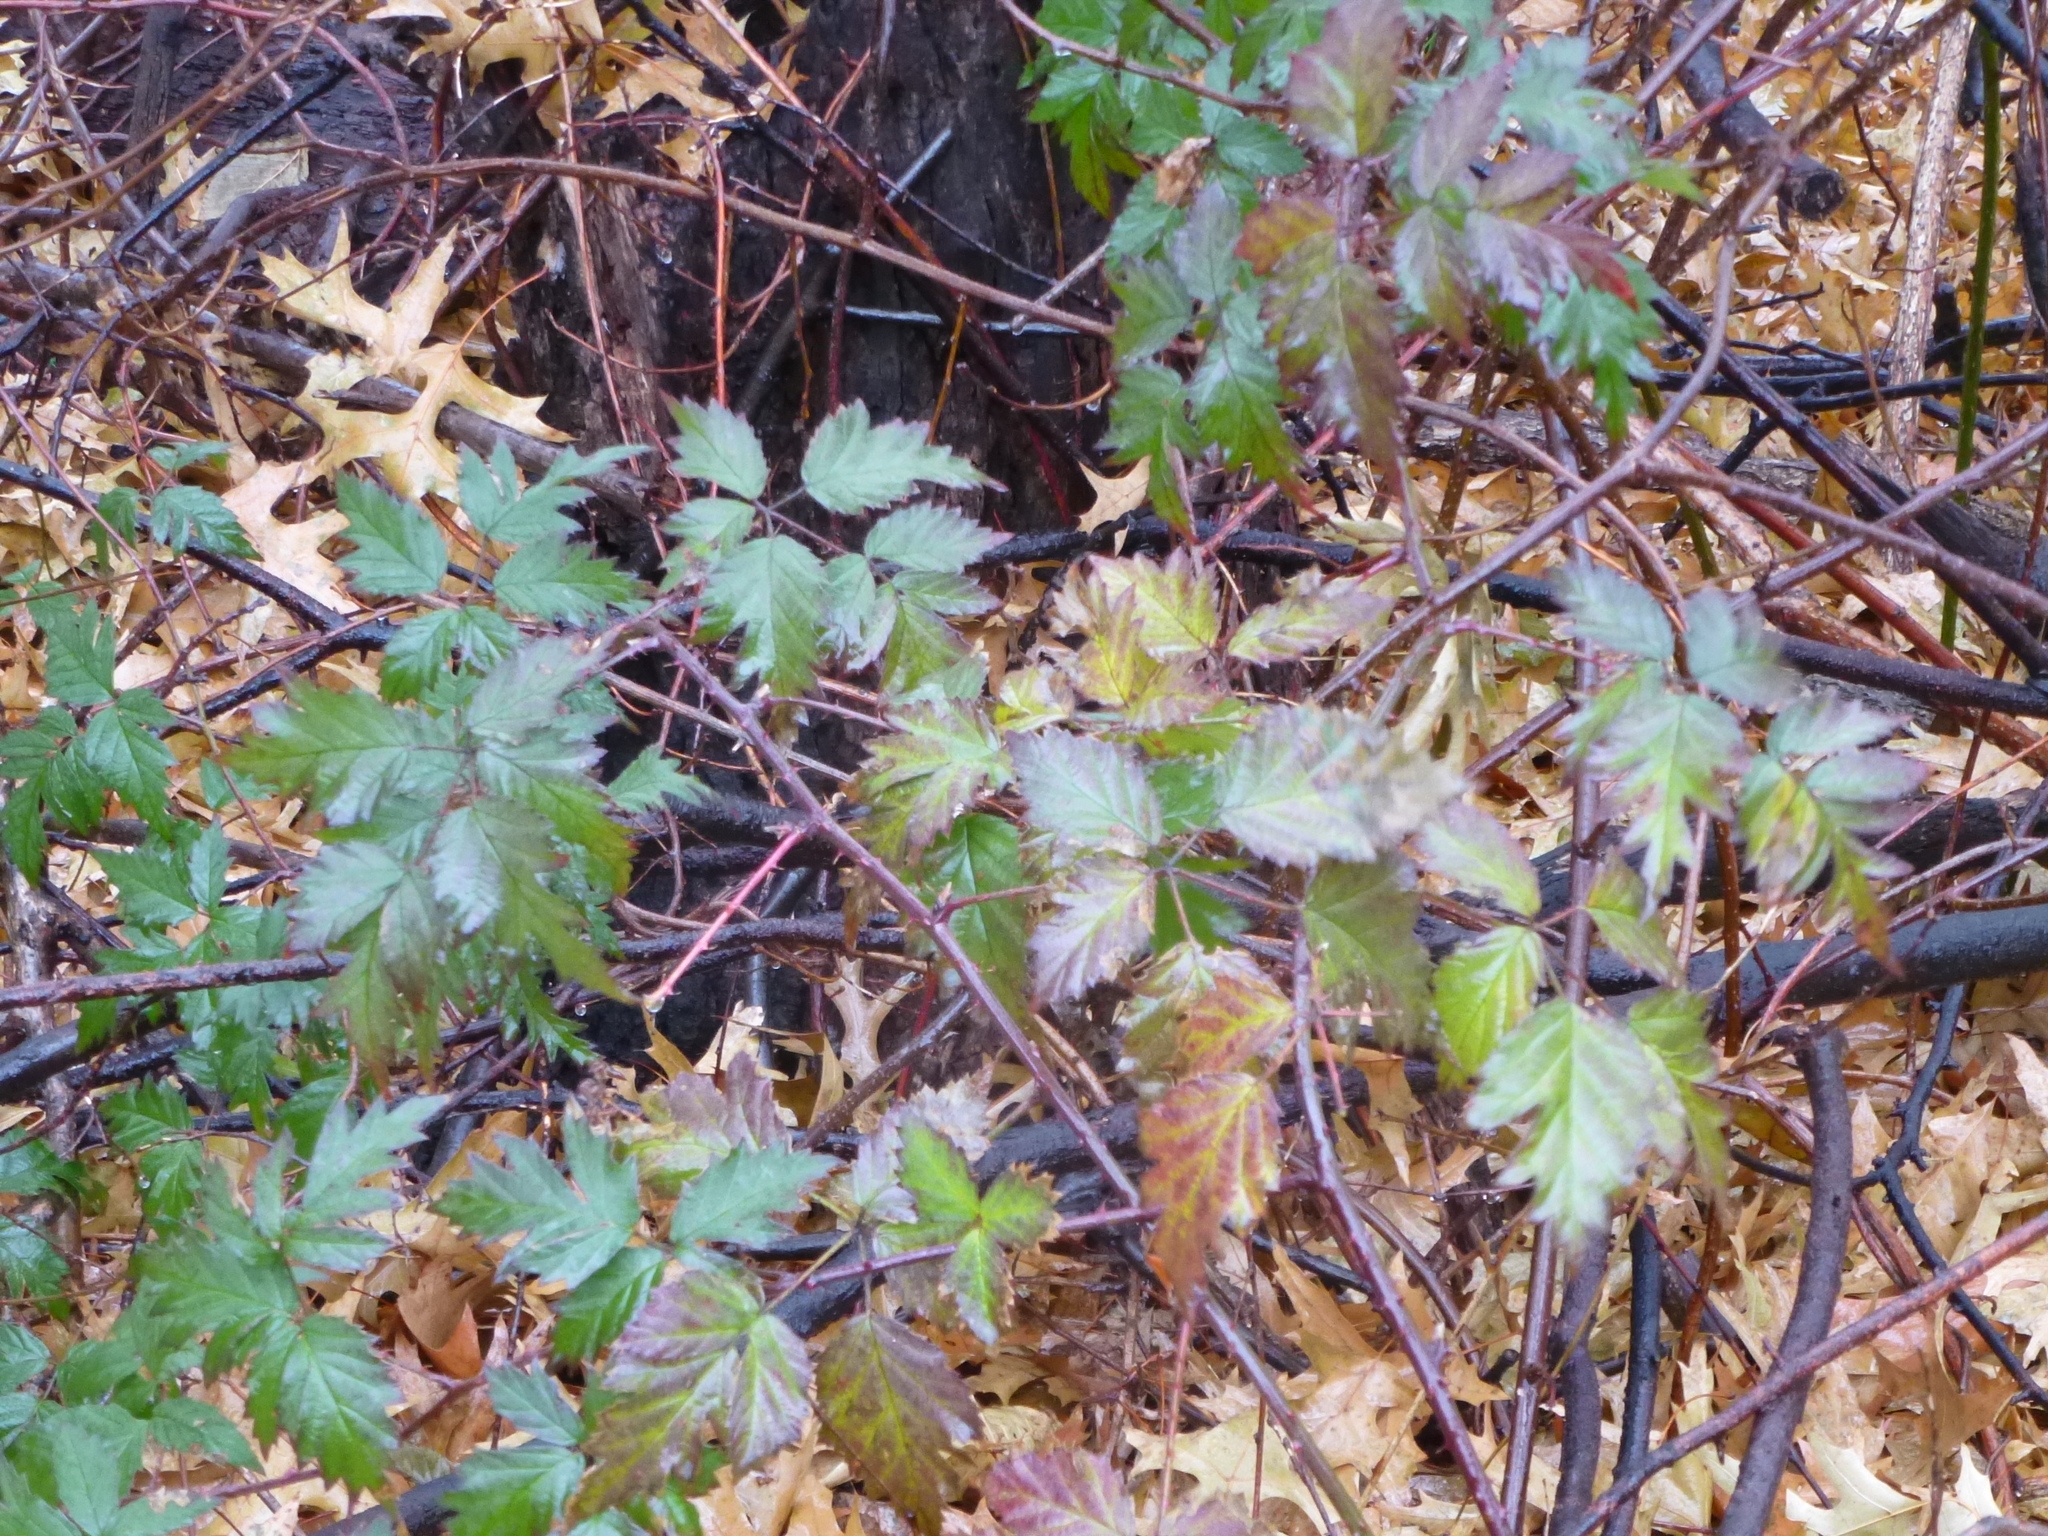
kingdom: Plantae
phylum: Tracheophyta
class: Magnoliopsida
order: Rosales
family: Rosaceae
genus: Rubus
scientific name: Rubus laciniatus
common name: Evergreen blackberry
